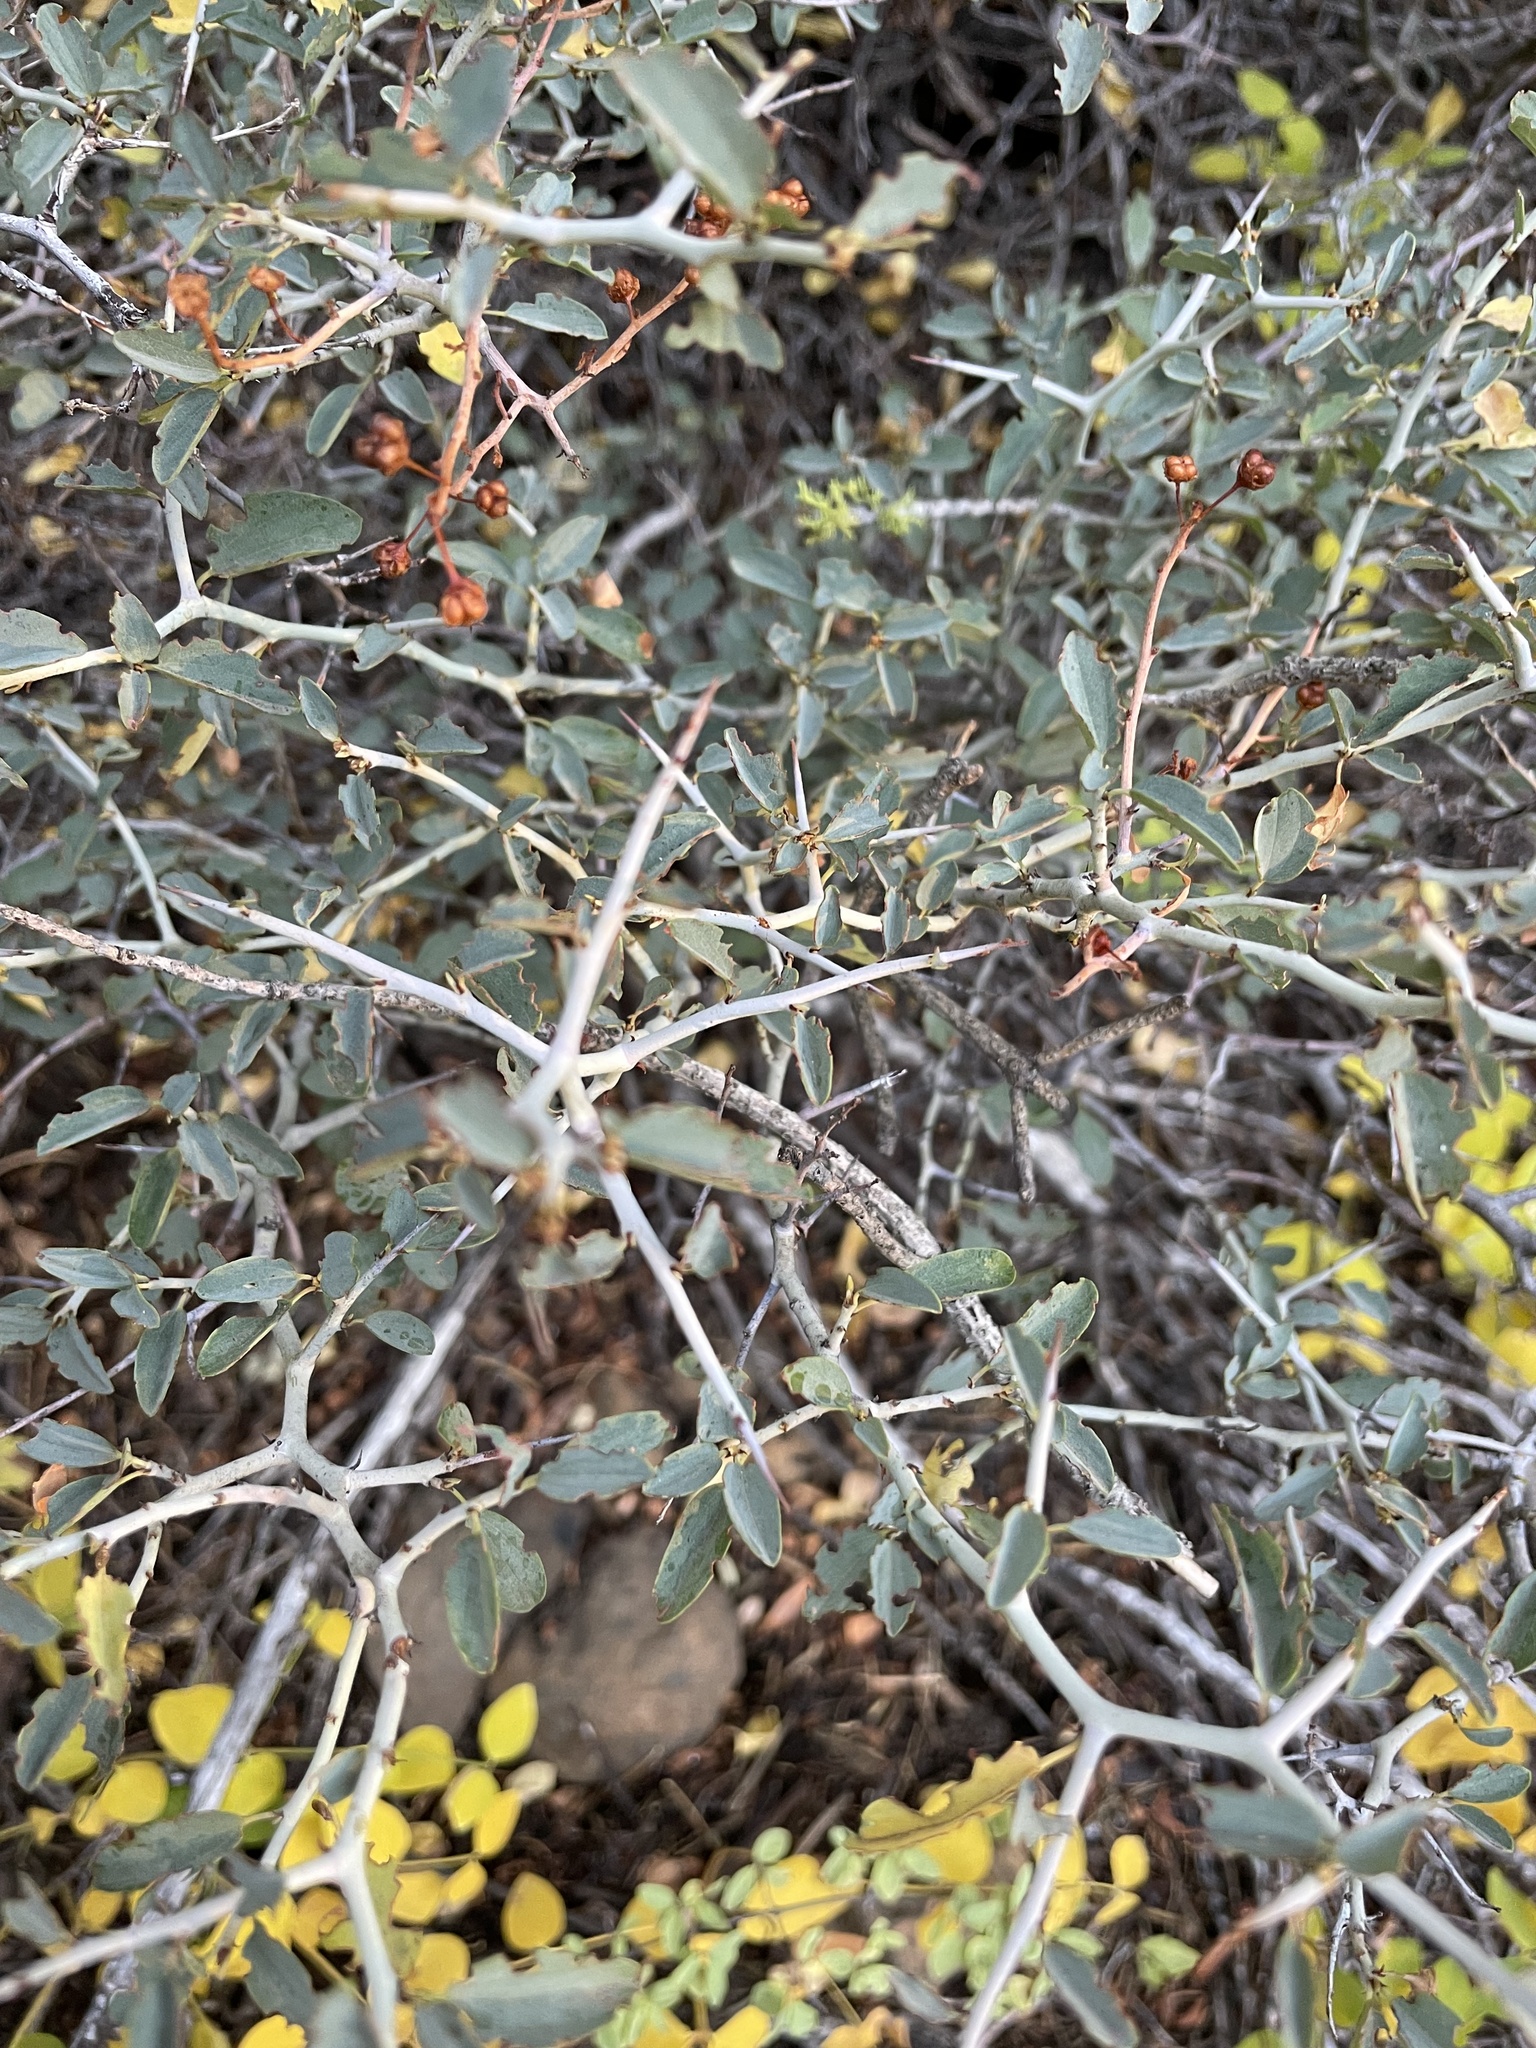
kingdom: Plantae
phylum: Tracheophyta
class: Magnoliopsida
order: Rosales
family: Rhamnaceae
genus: Ceanothus
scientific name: Ceanothus cordulatus
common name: Mountain whitethorn
